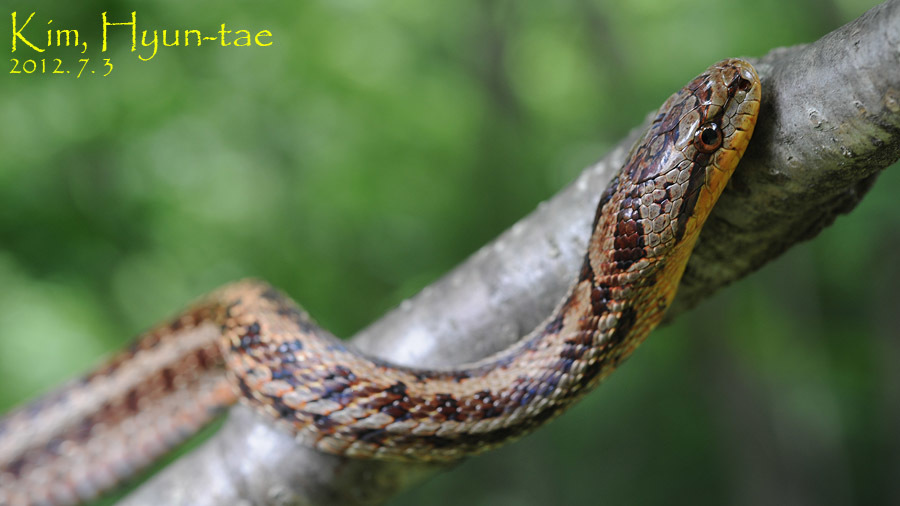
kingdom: Animalia
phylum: Chordata
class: Squamata
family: Colubridae
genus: Elaphe
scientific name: Elaphe dione
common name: Dione ratsnake
